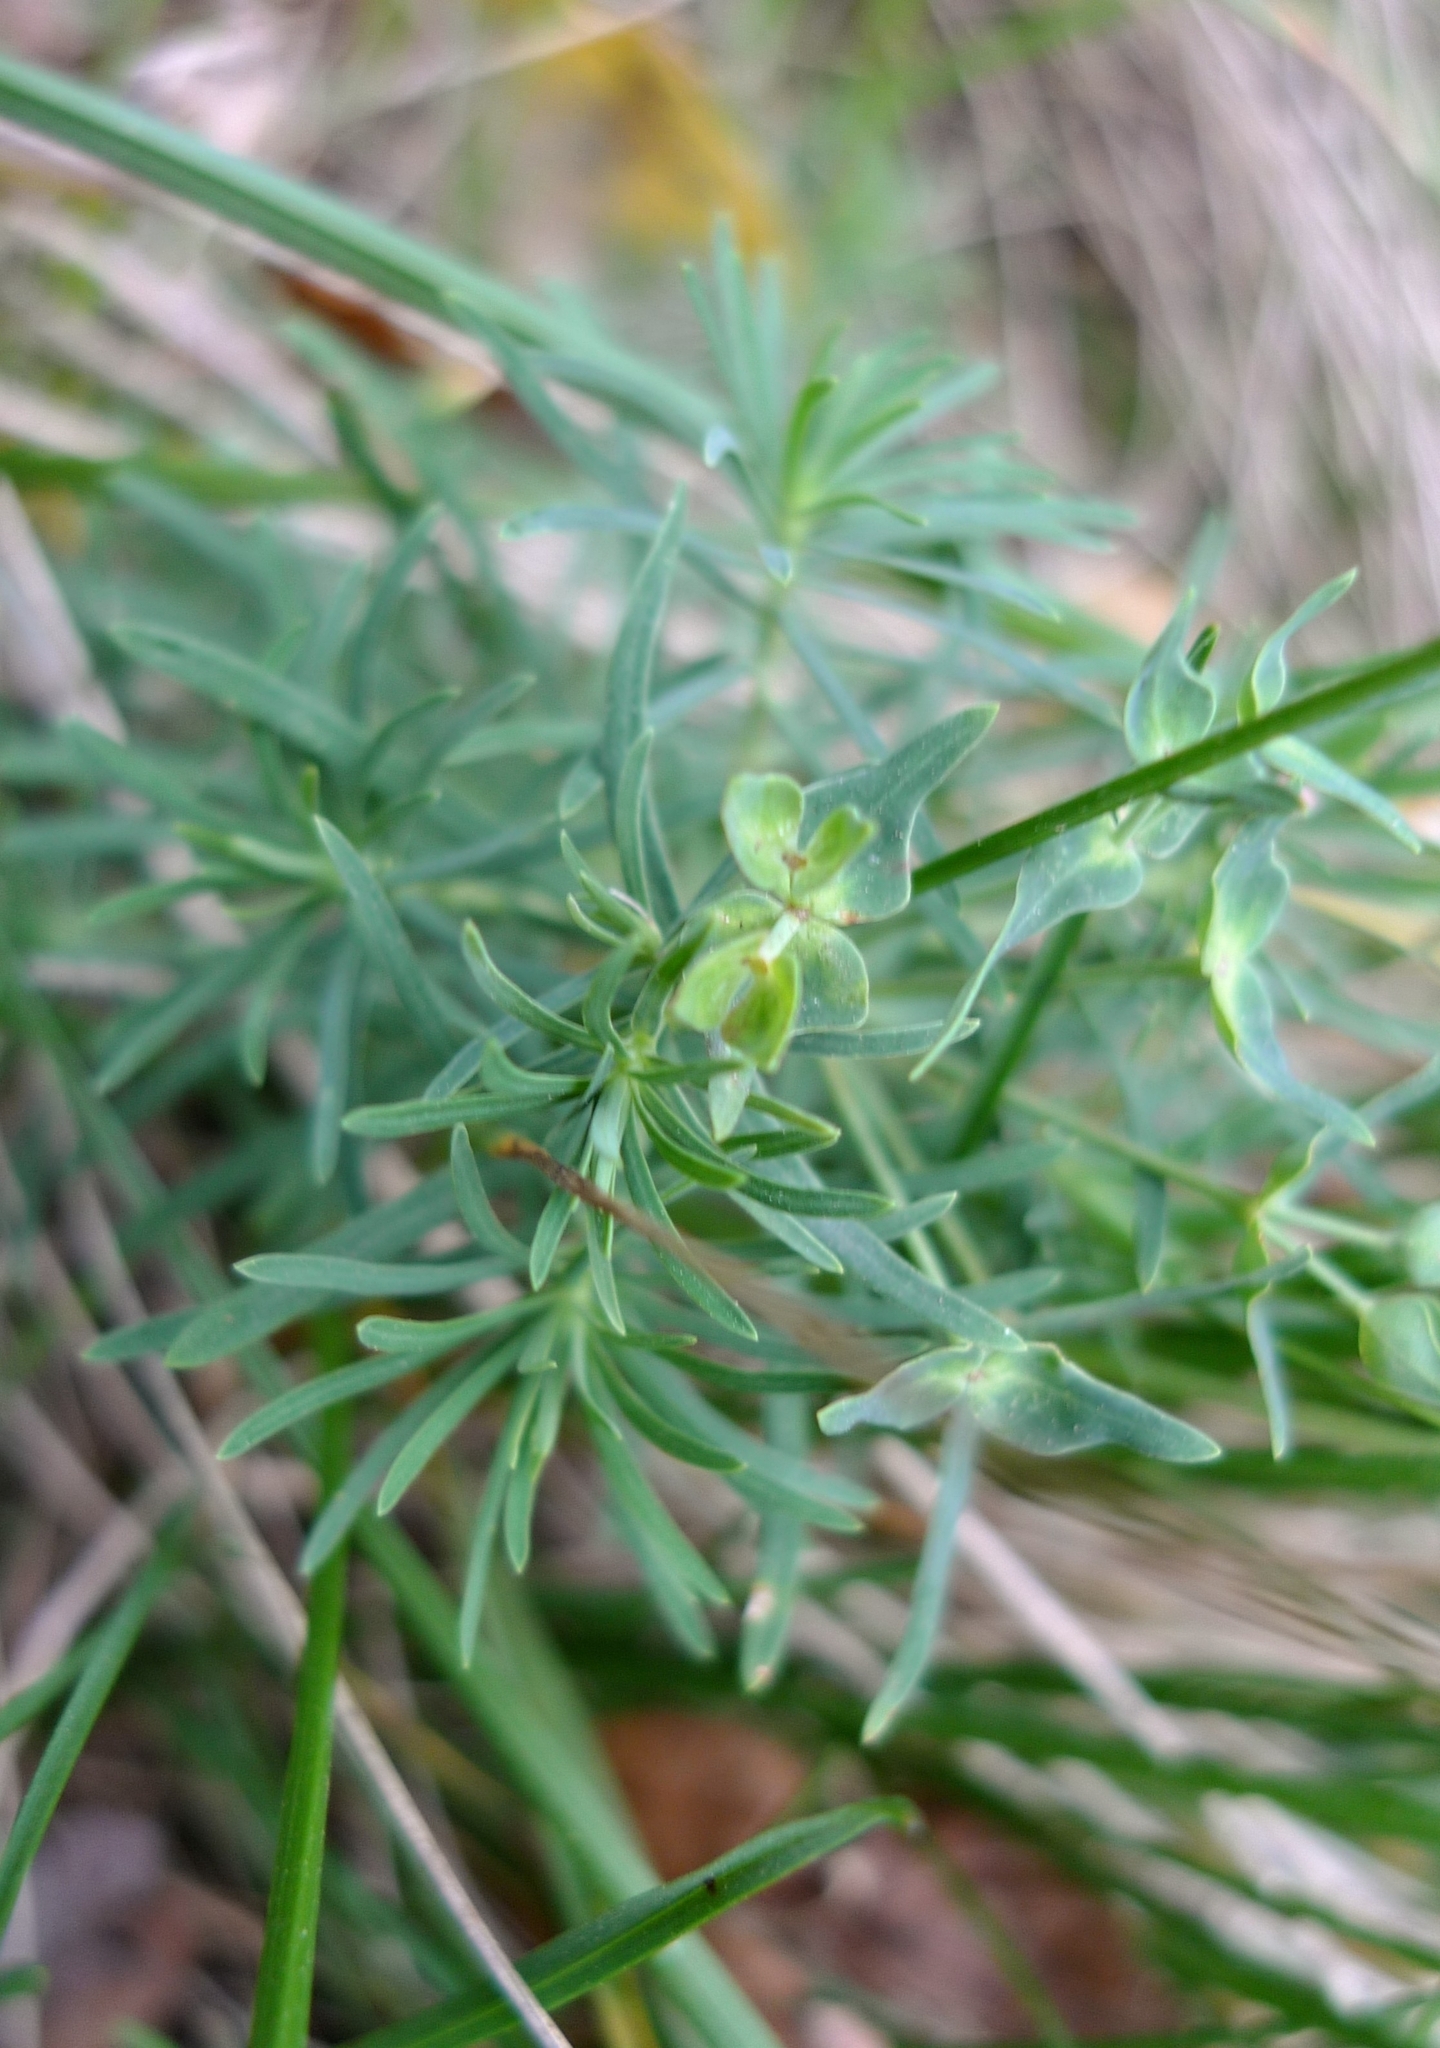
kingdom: Plantae
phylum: Tracheophyta
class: Magnoliopsida
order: Malpighiales
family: Euphorbiaceae
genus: Euphorbia
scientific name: Euphorbia cyparissias
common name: Cypress spurge
